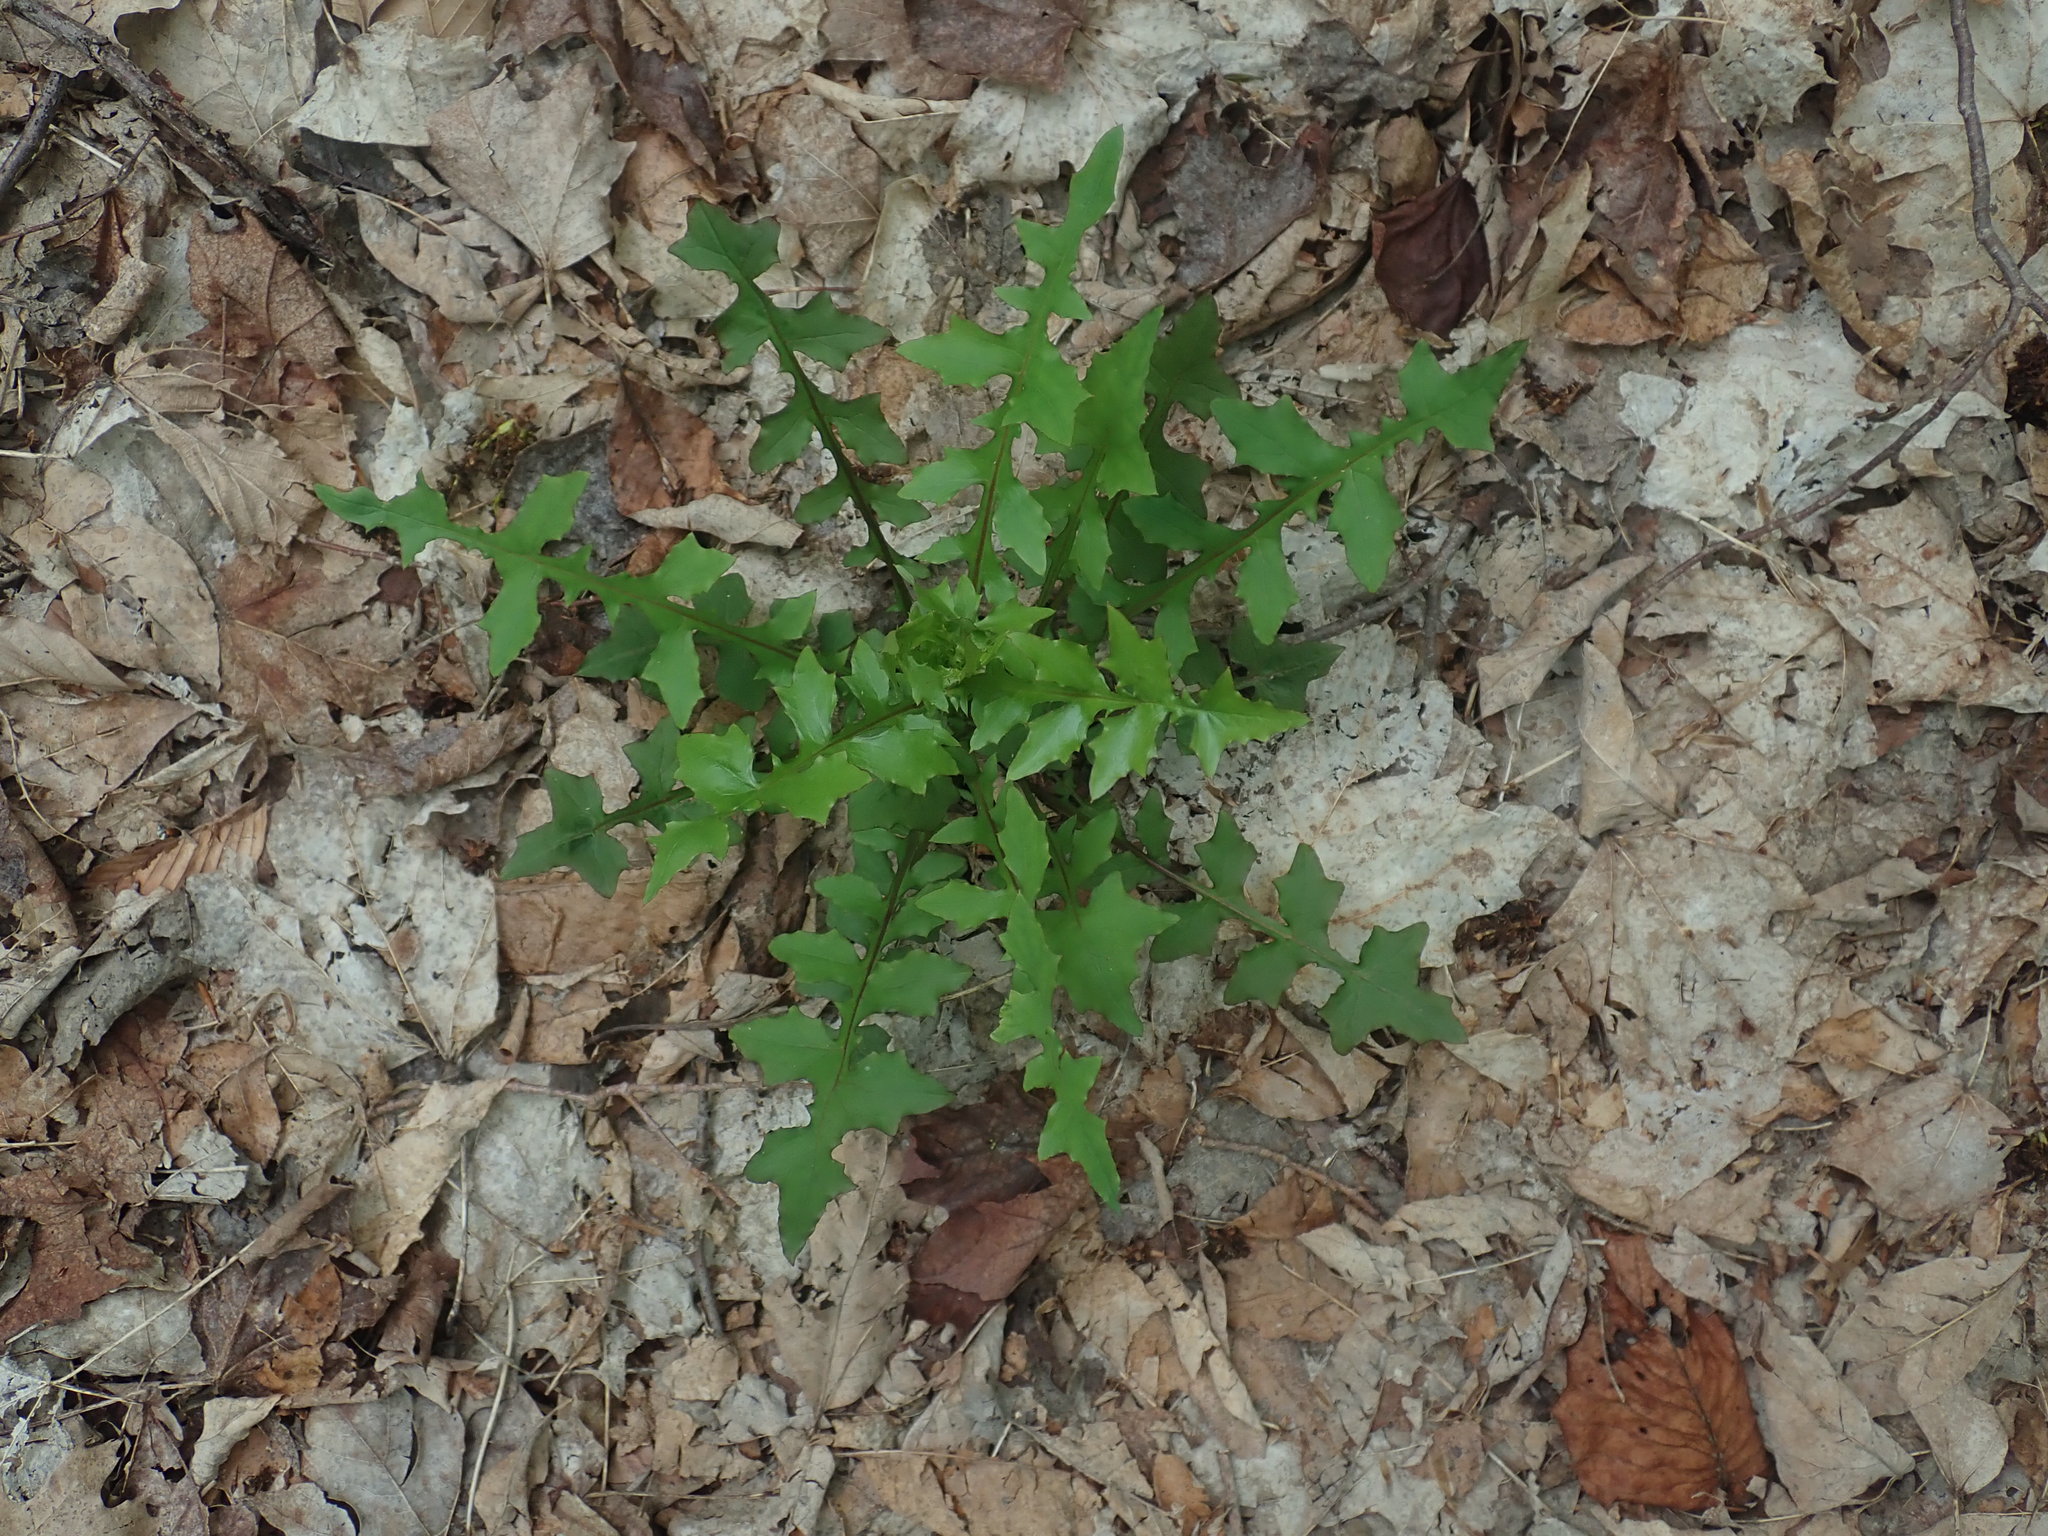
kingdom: Plantae
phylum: Tracheophyta
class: Magnoliopsida
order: Asterales
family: Asteraceae
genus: Mycelis
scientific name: Mycelis muralis
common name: Wall lettuce
